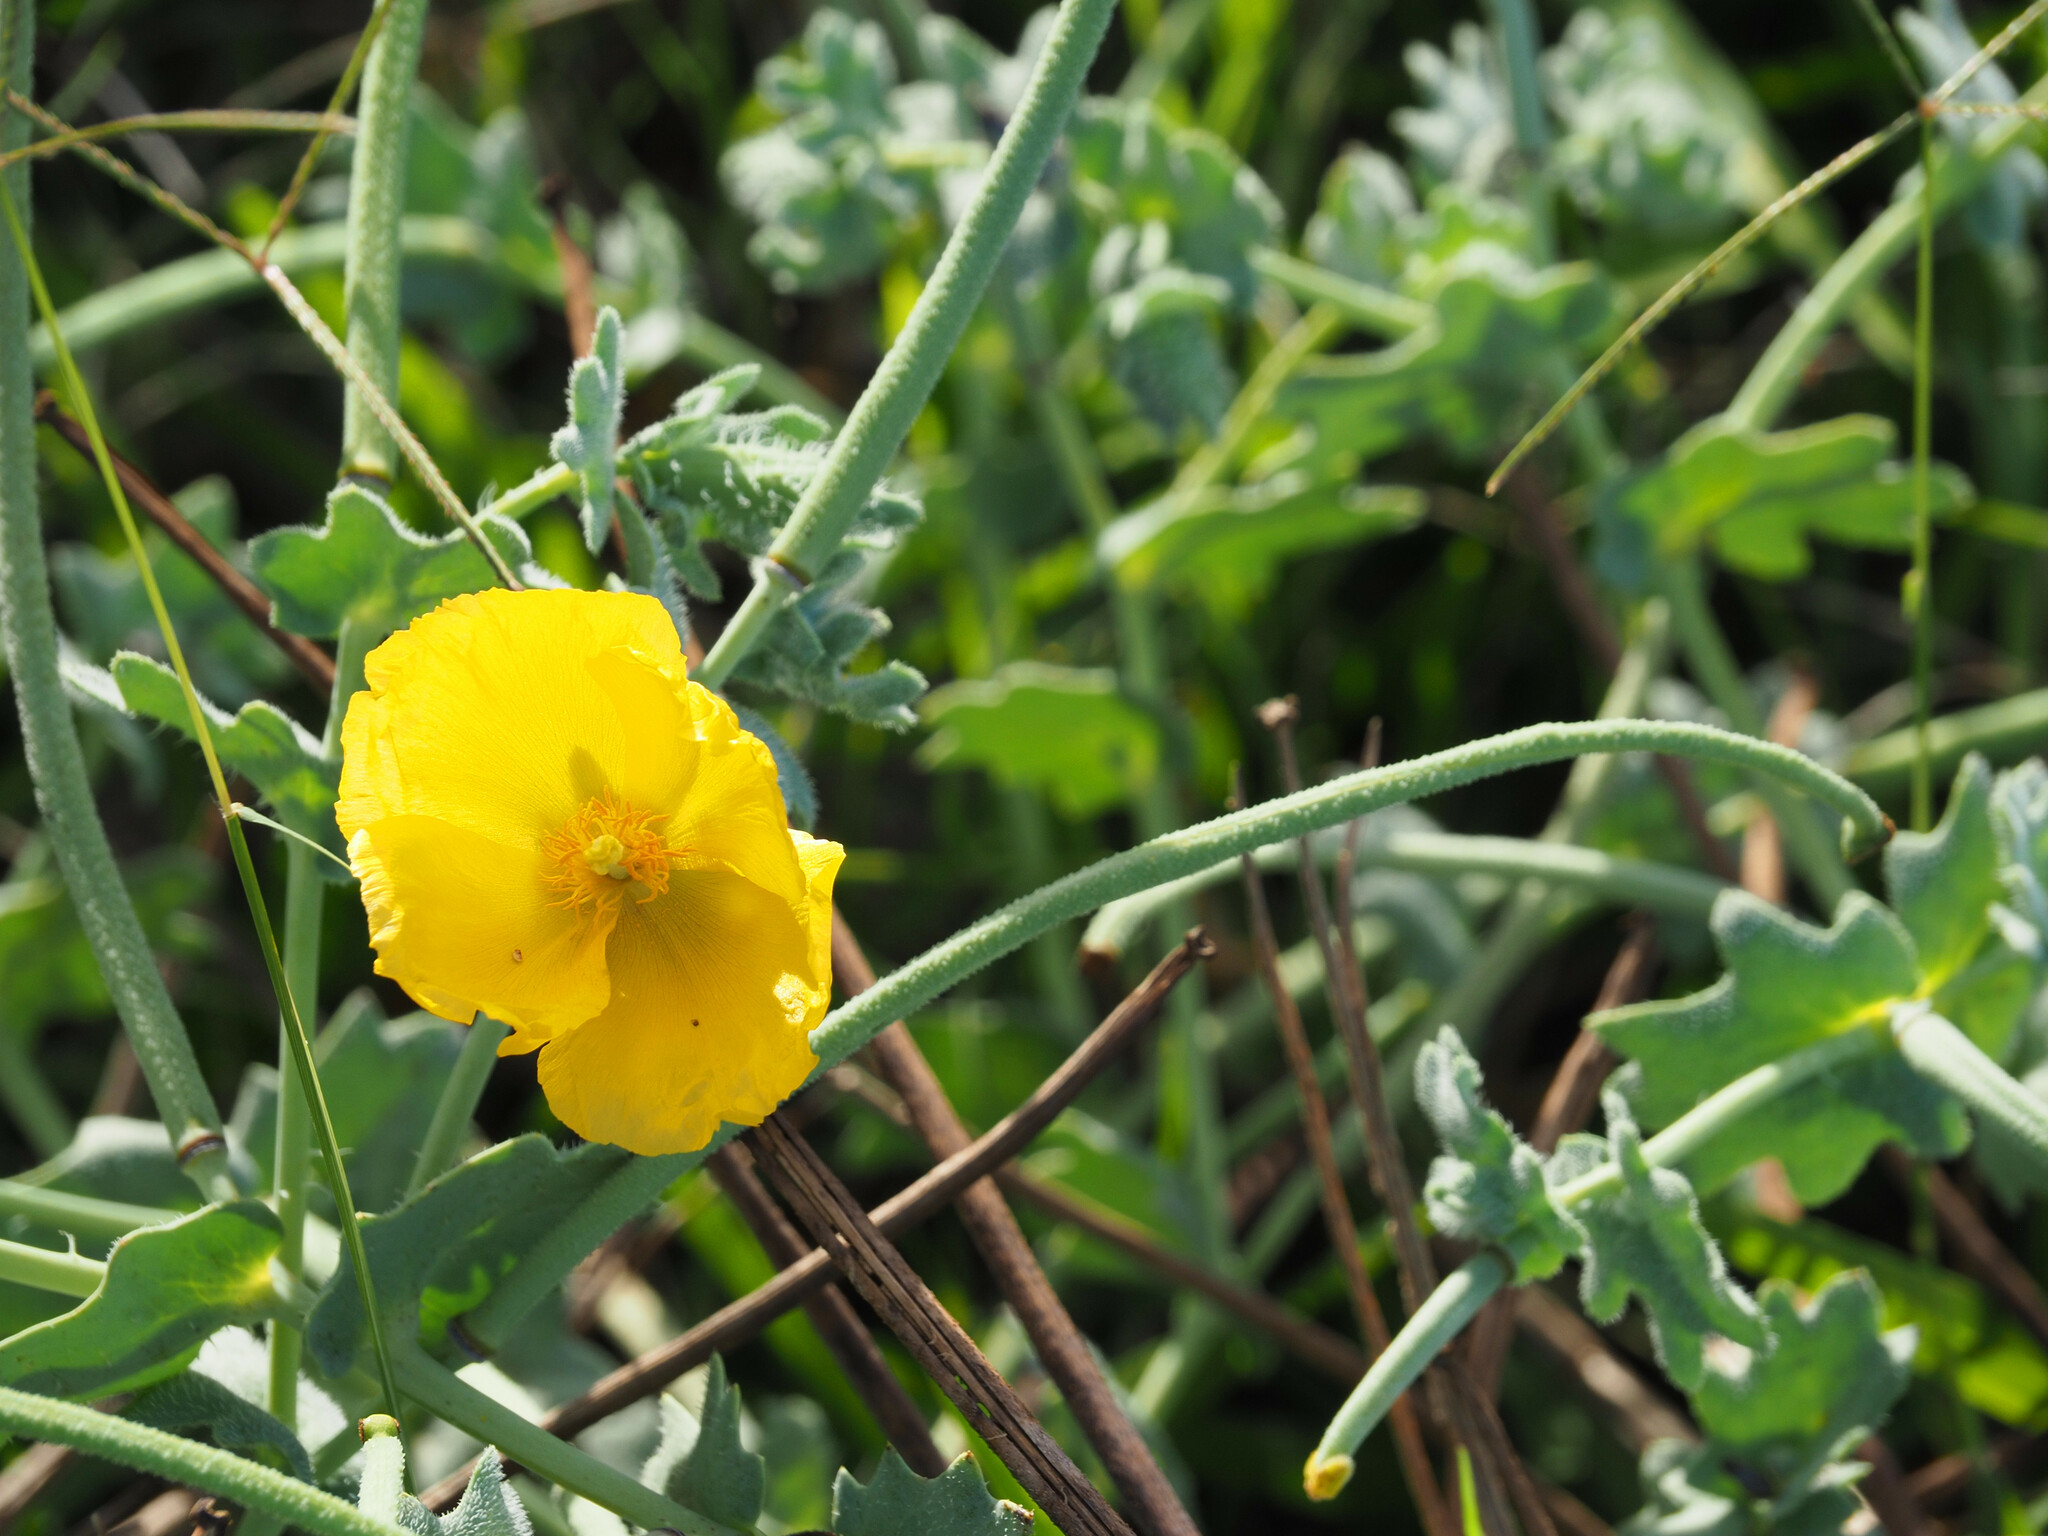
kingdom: Plantae
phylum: Tracheophyta
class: Magnoliopsida
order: Ranunculales
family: Papaveraceae
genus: Glaucium
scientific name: Glaucium flavum
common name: Yellow horned-poppy
